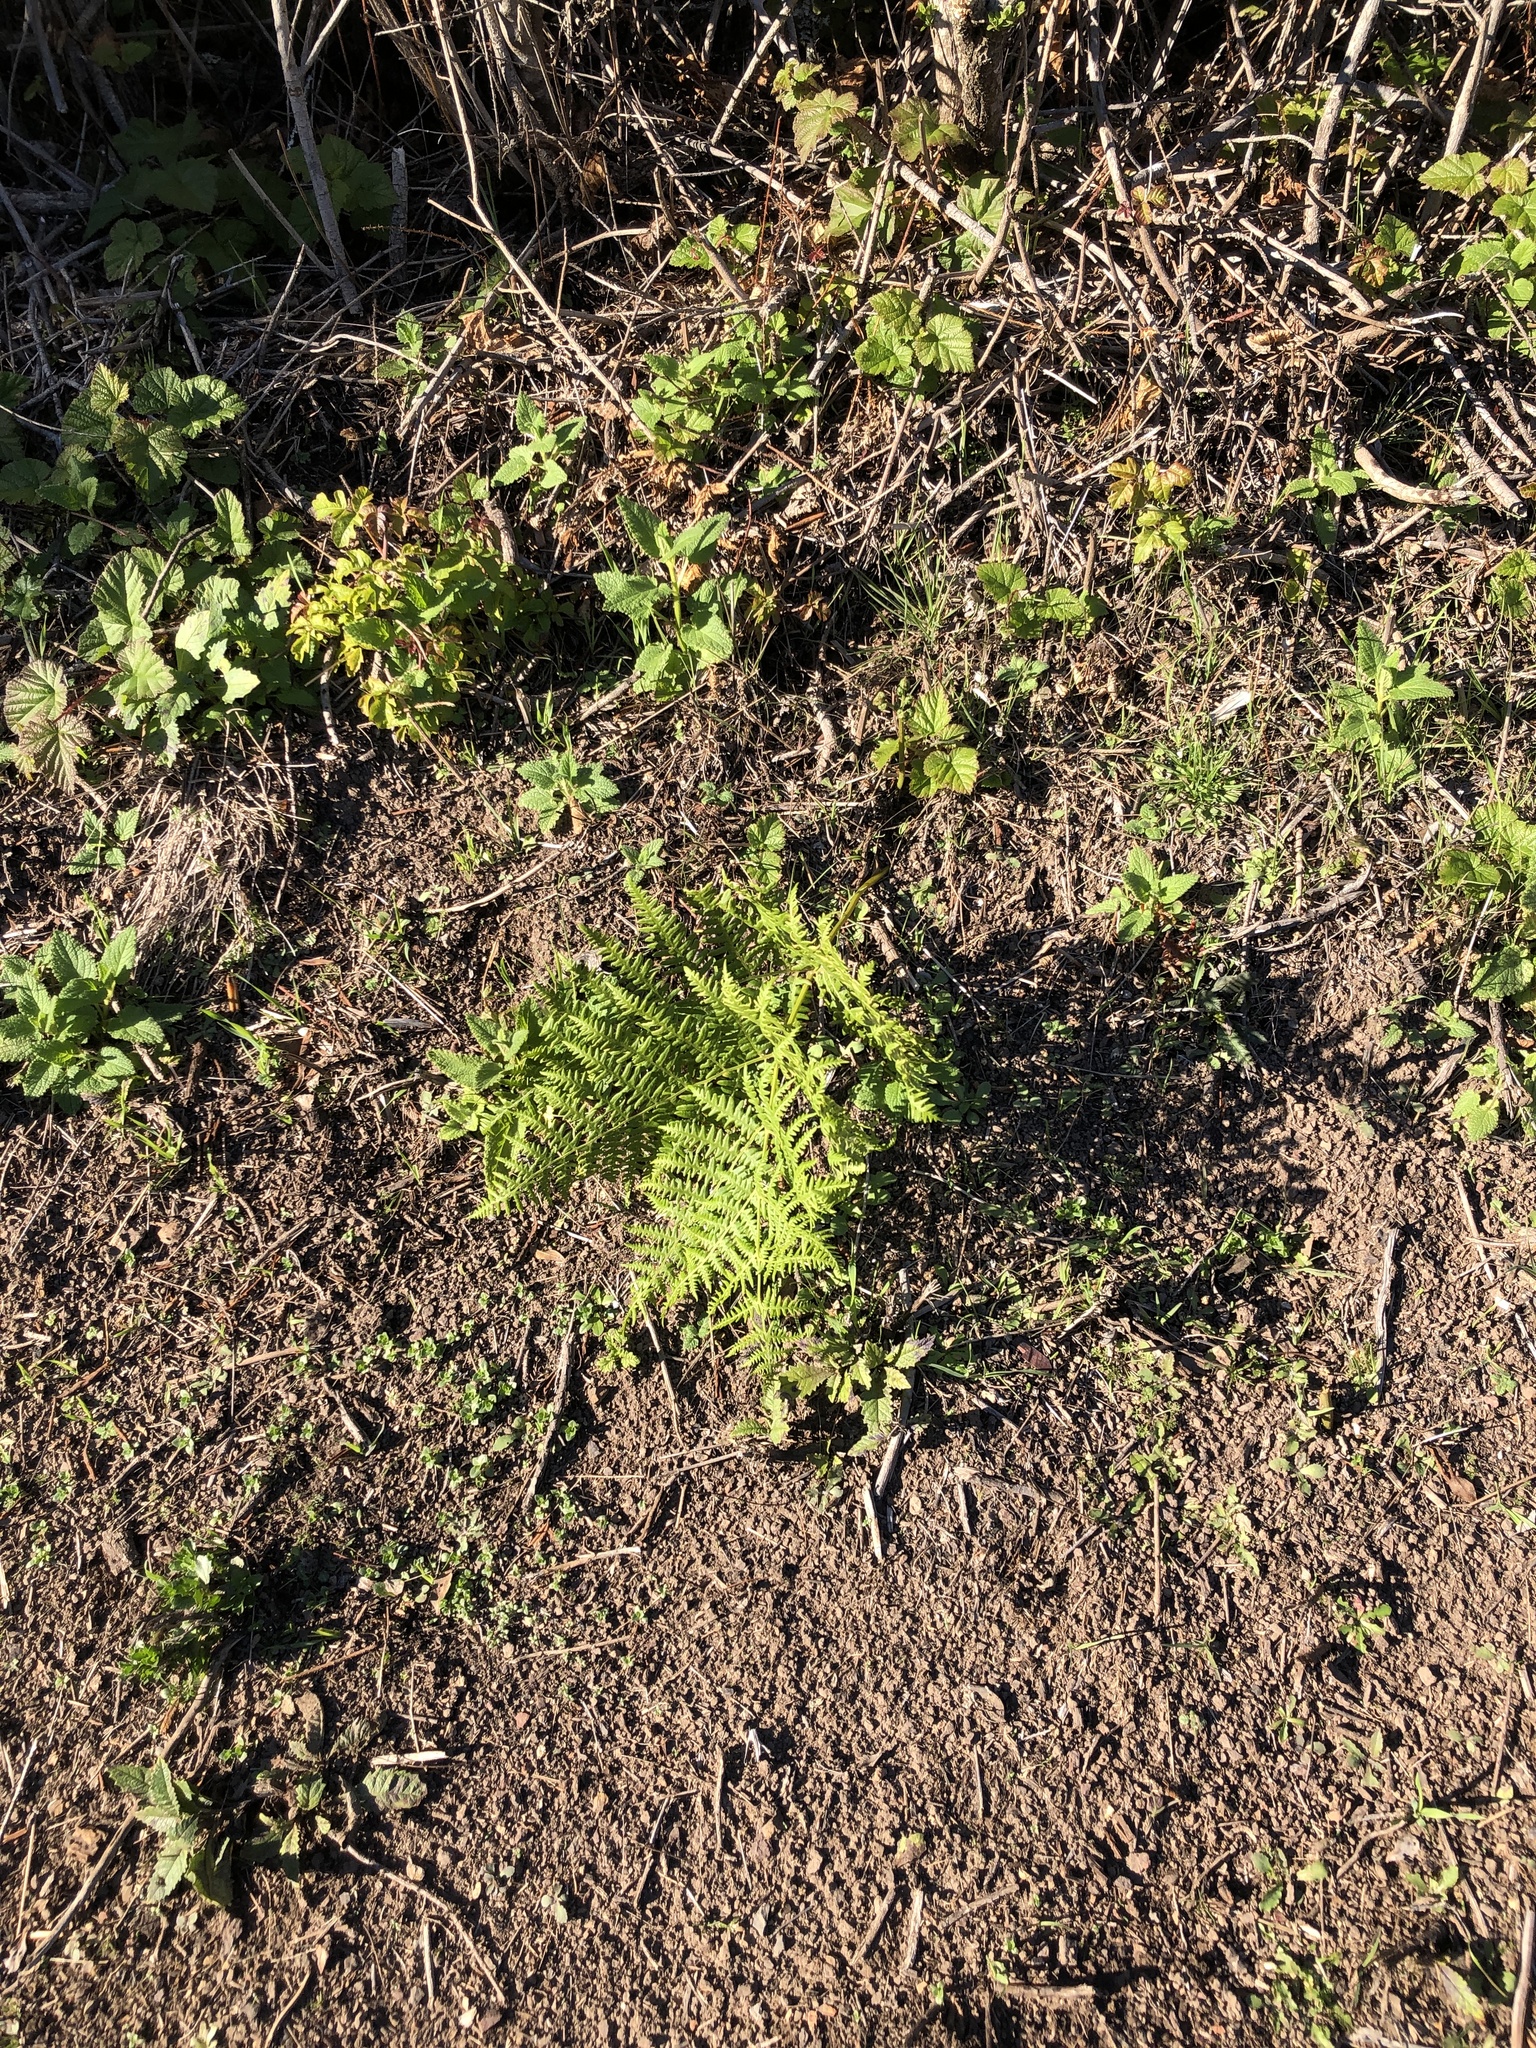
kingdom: Plantae
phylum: Tracheophyta
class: Polypodiopsida
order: Polypodiales
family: Dennstaedtiaceae
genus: Pteridium
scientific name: Pteridium aquilinum
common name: Bracken
